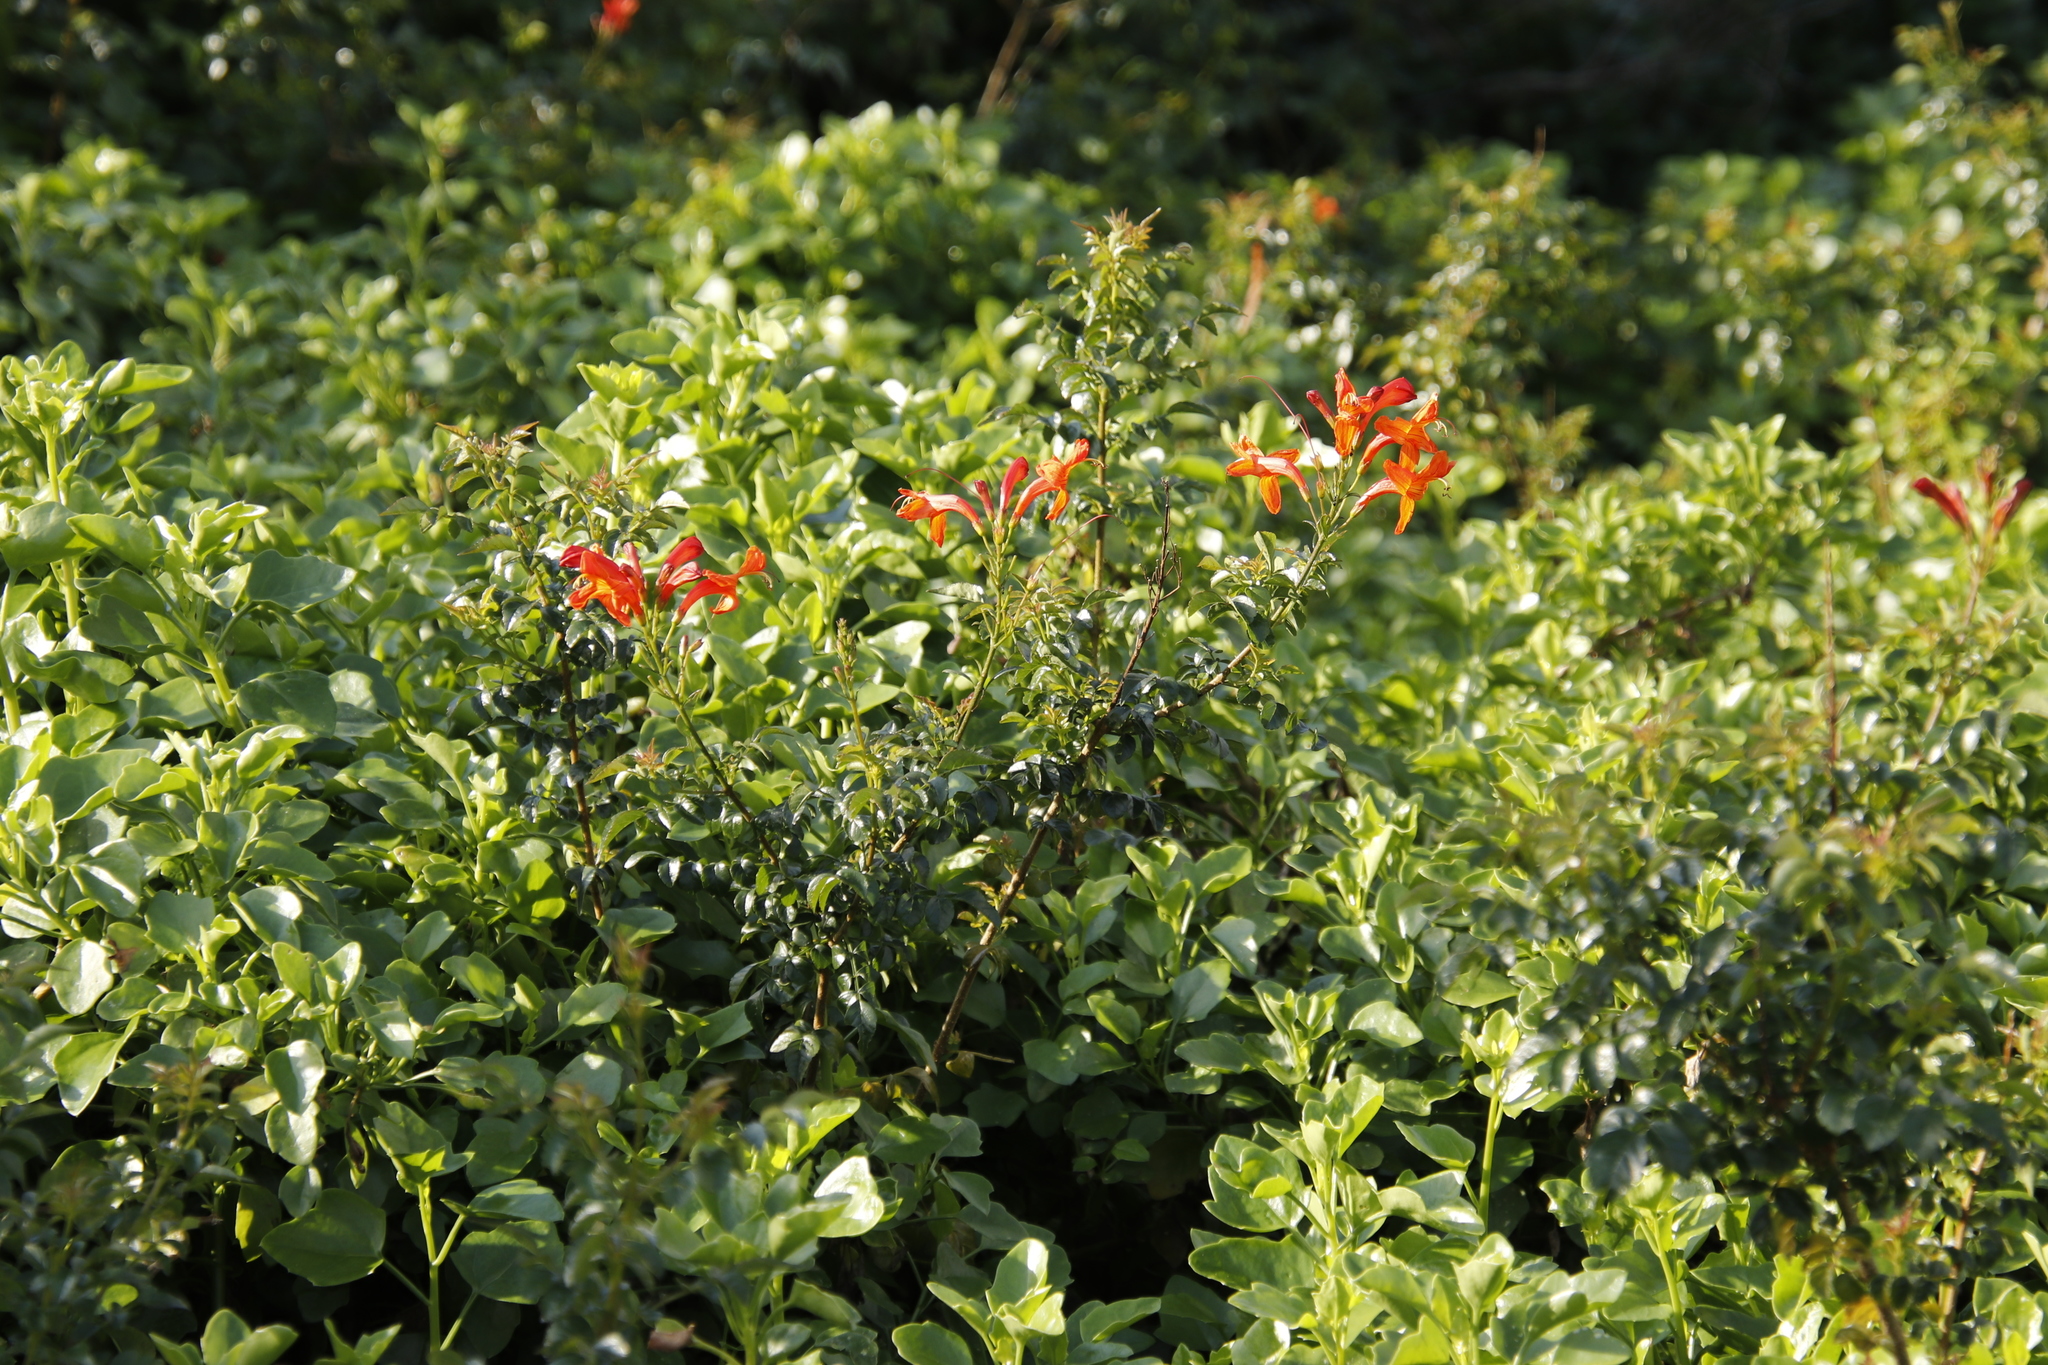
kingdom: Plantae
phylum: Tracheophyta
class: Magnoliopsida
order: Lamiales
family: Bignoniaceae
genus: Tecomaria
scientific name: Tecomaria capensis
